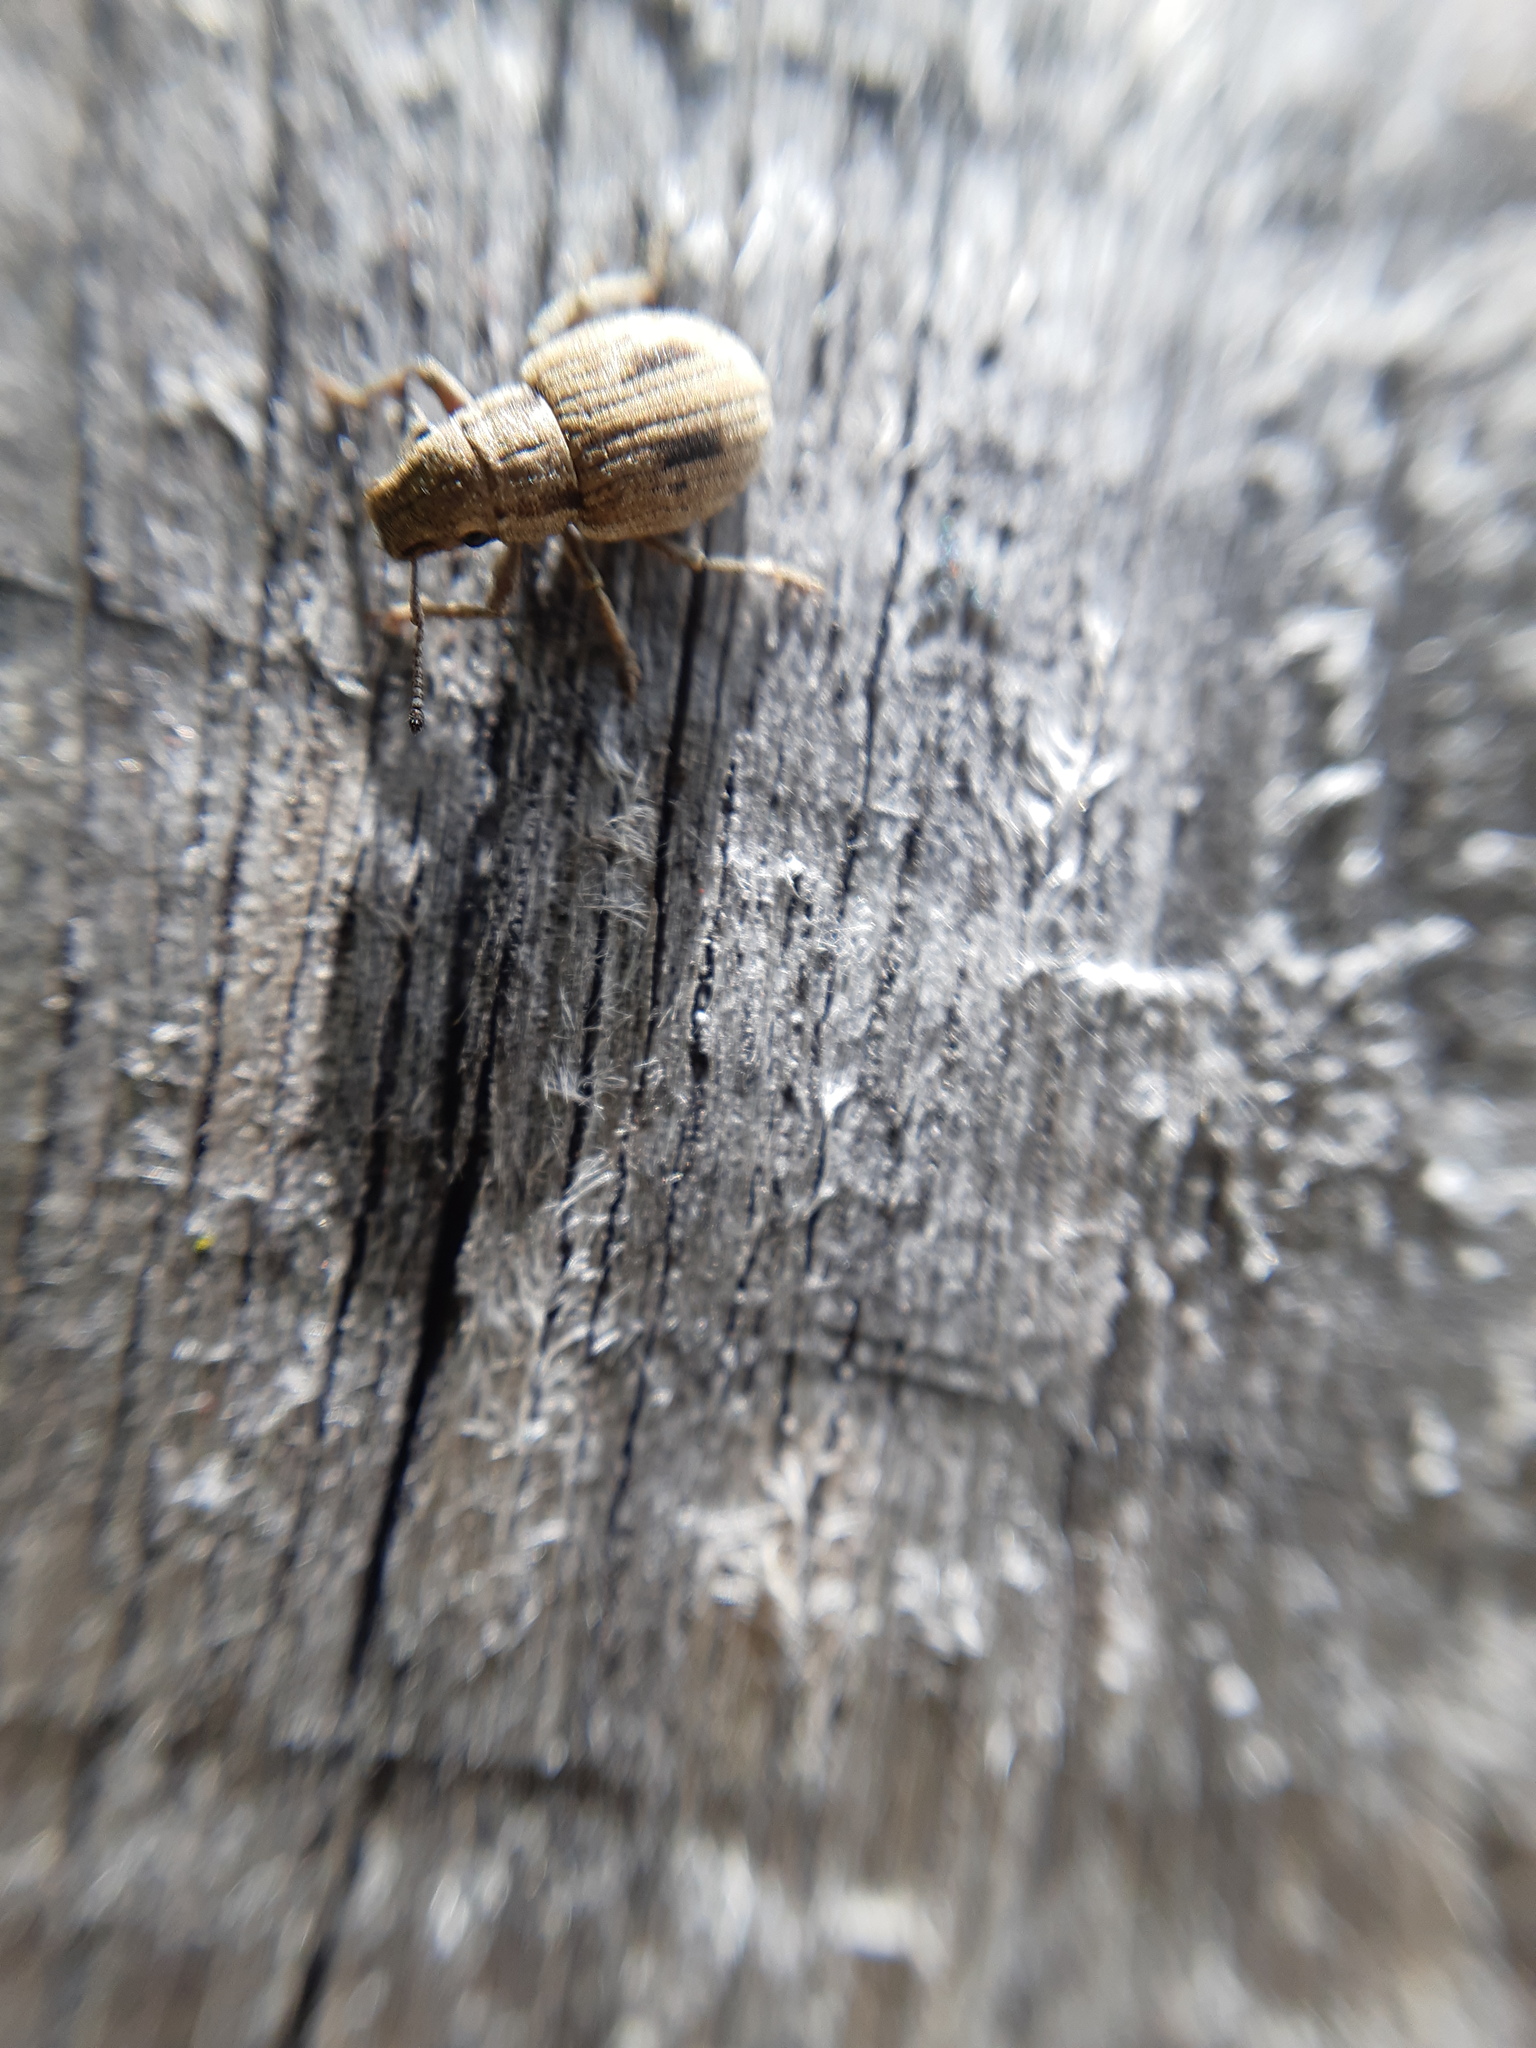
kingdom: Animalia
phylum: Arthropoda
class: Insecta
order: Coleoptera
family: Curculionidae
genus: Eurymetopus
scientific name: Eurymetopus birabeni
